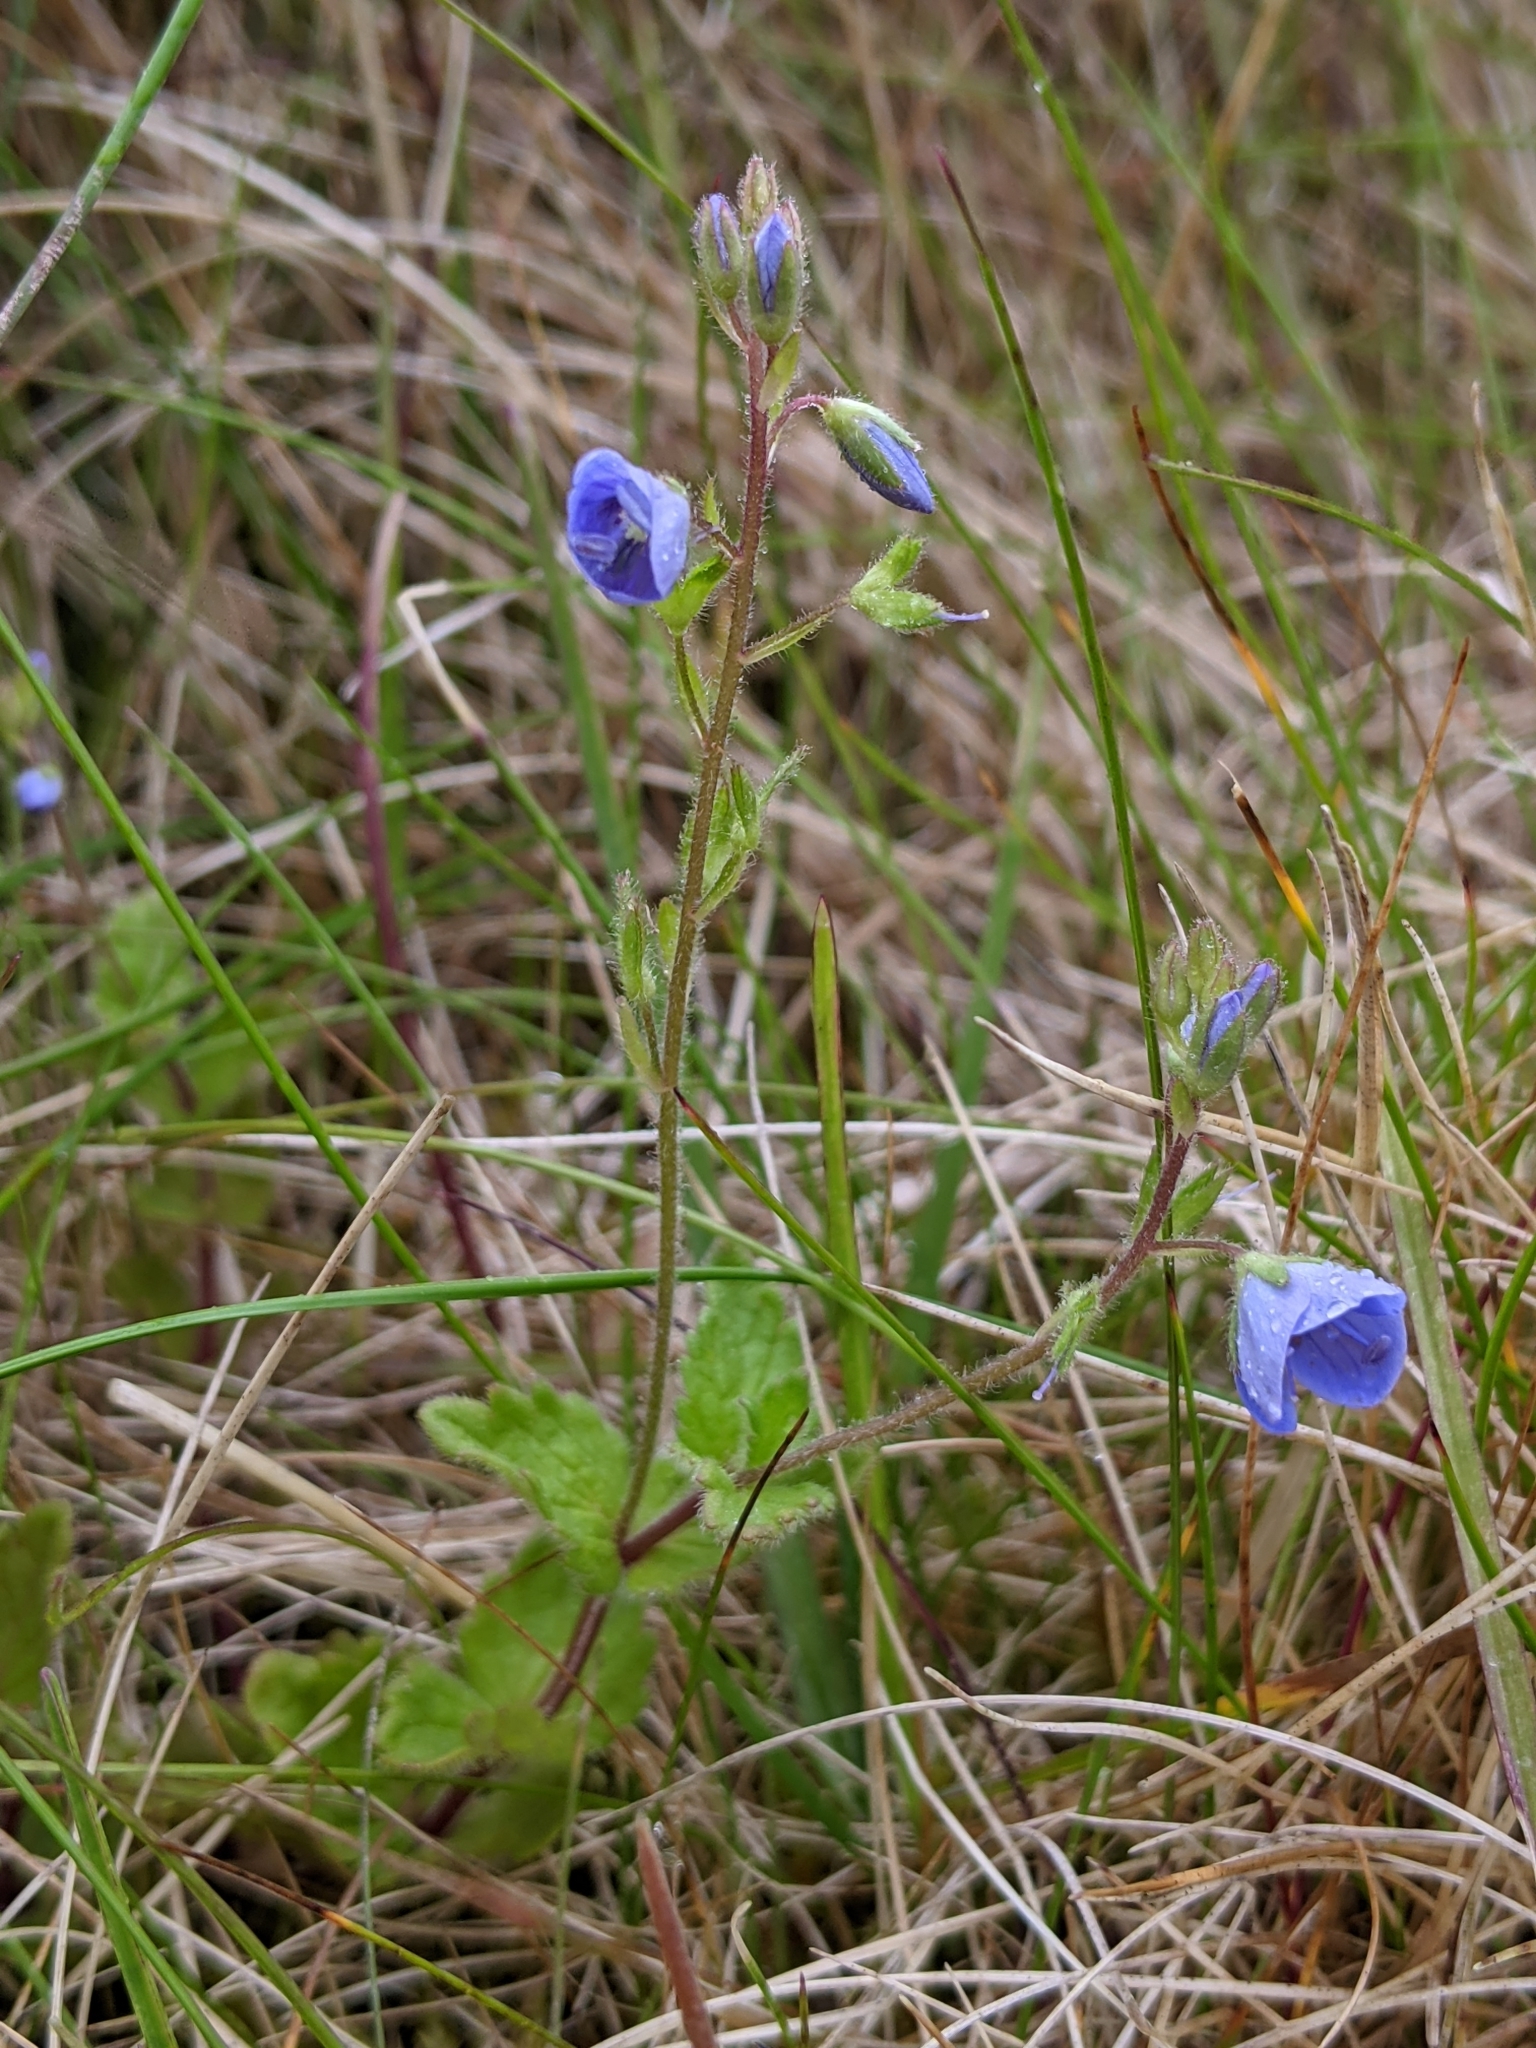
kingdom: Plantae
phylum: Tracheophyta
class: Magnoliopsida
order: Lamiales
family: Plantaginaceae
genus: Veronica
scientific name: Veronica chamaedrys
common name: Germander speedwell
